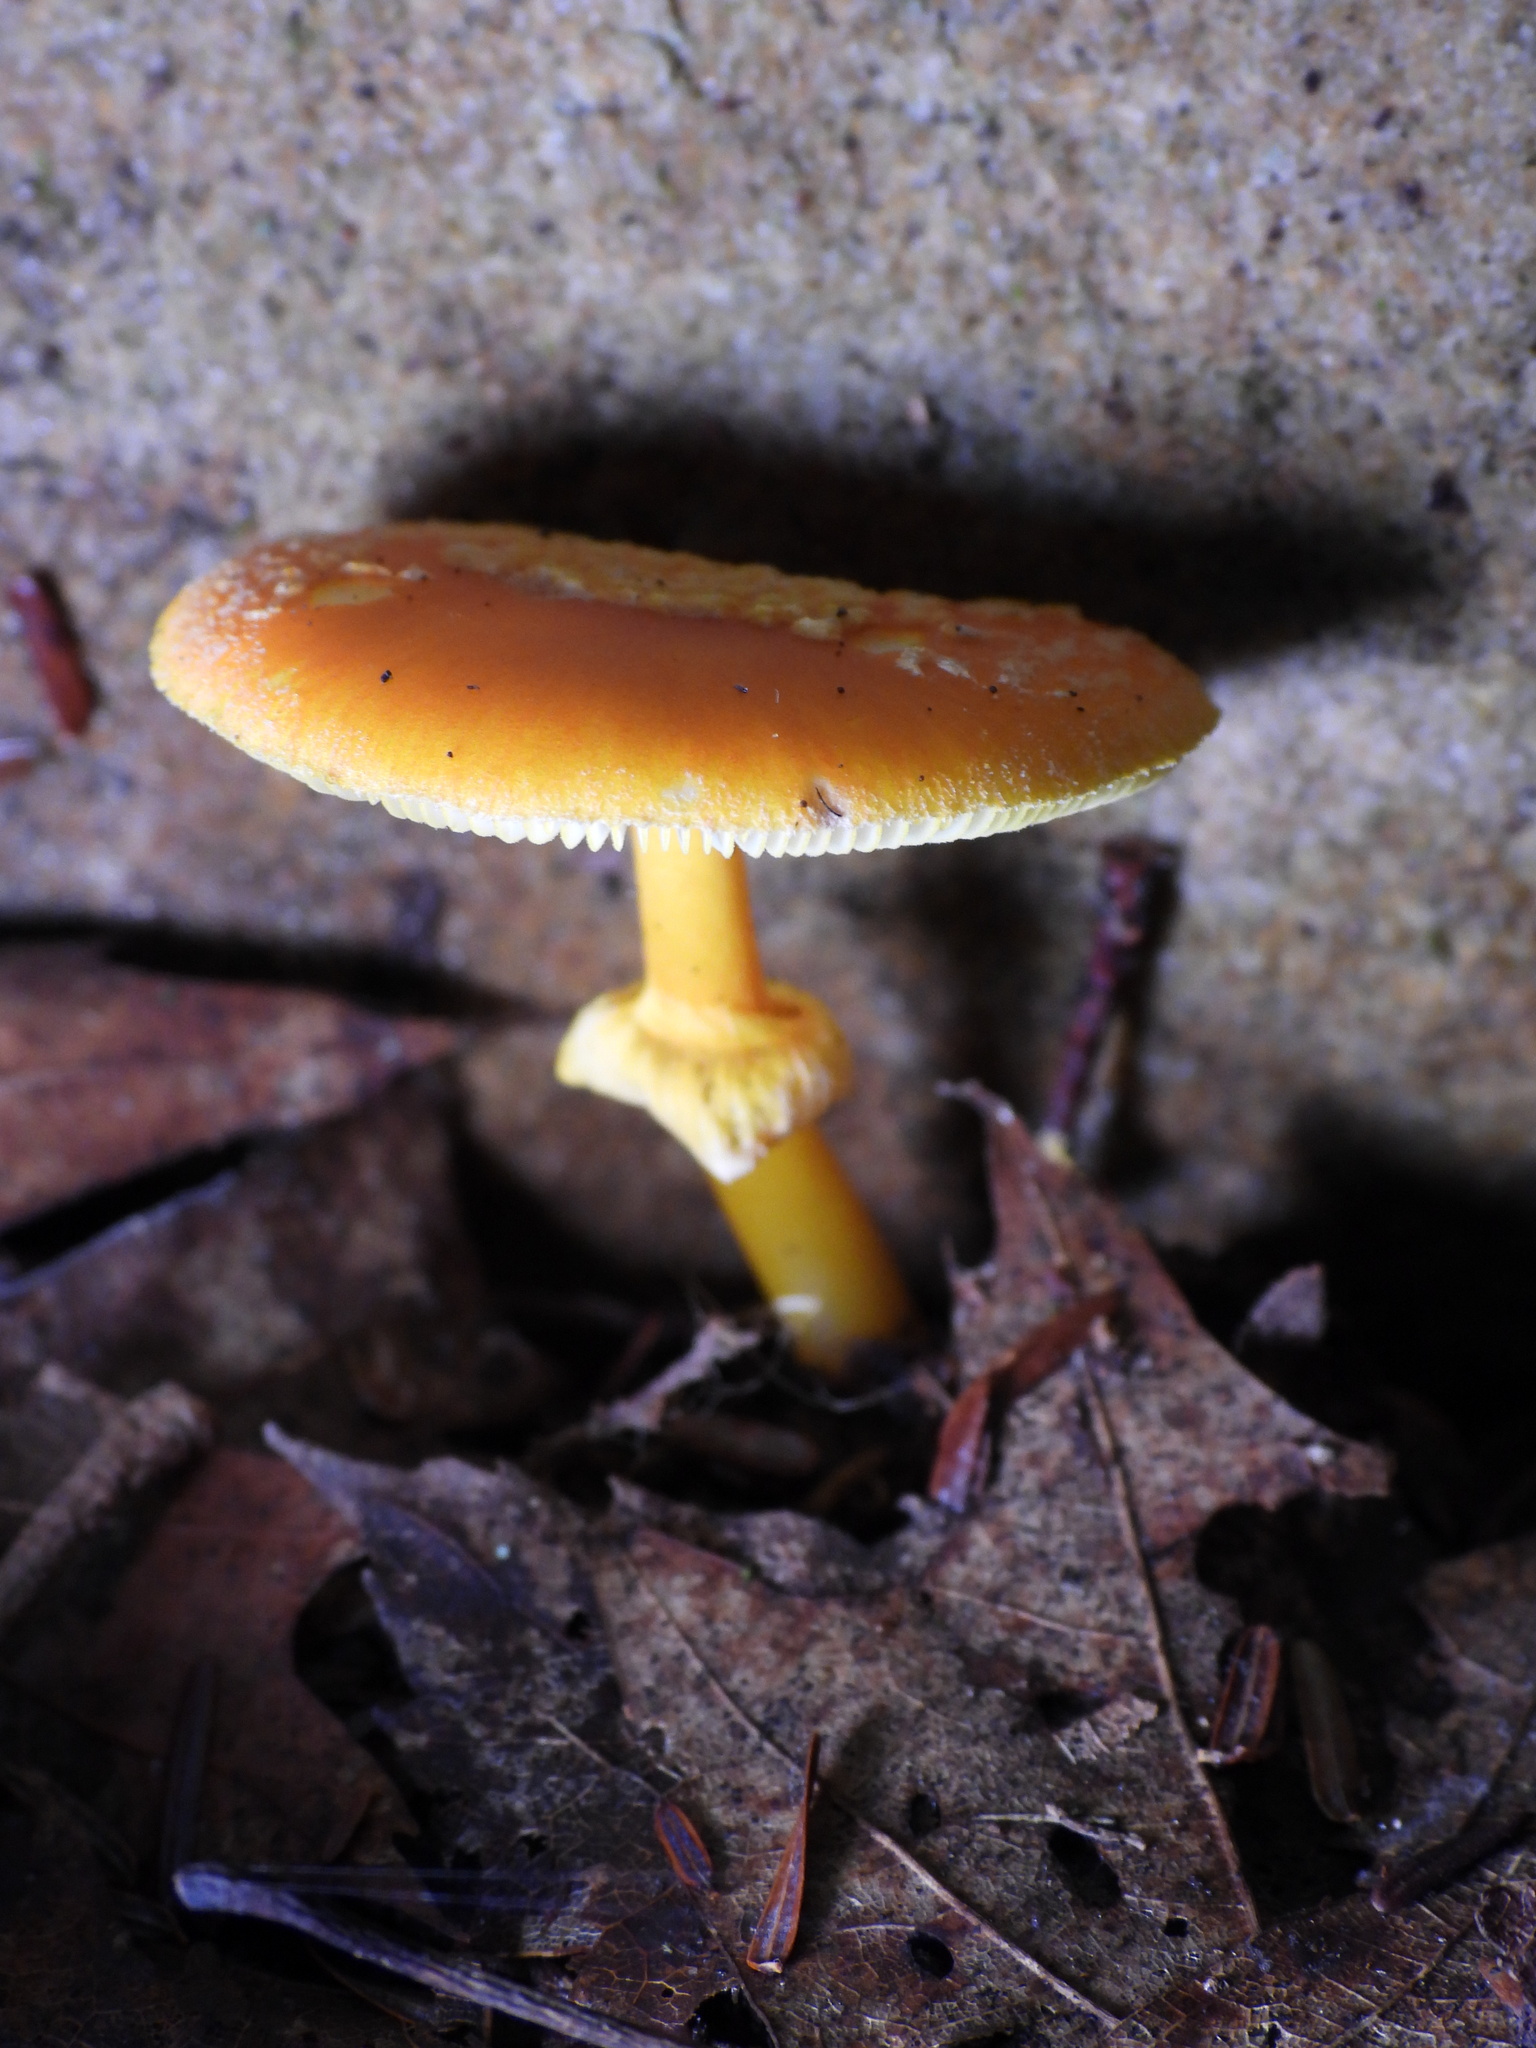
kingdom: Fungi
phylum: Basidiomycota
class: Agaricomycetes
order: Agaricales
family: Amanitaceae
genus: Amanita
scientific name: Amanita flavoconia
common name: Yellow patches
